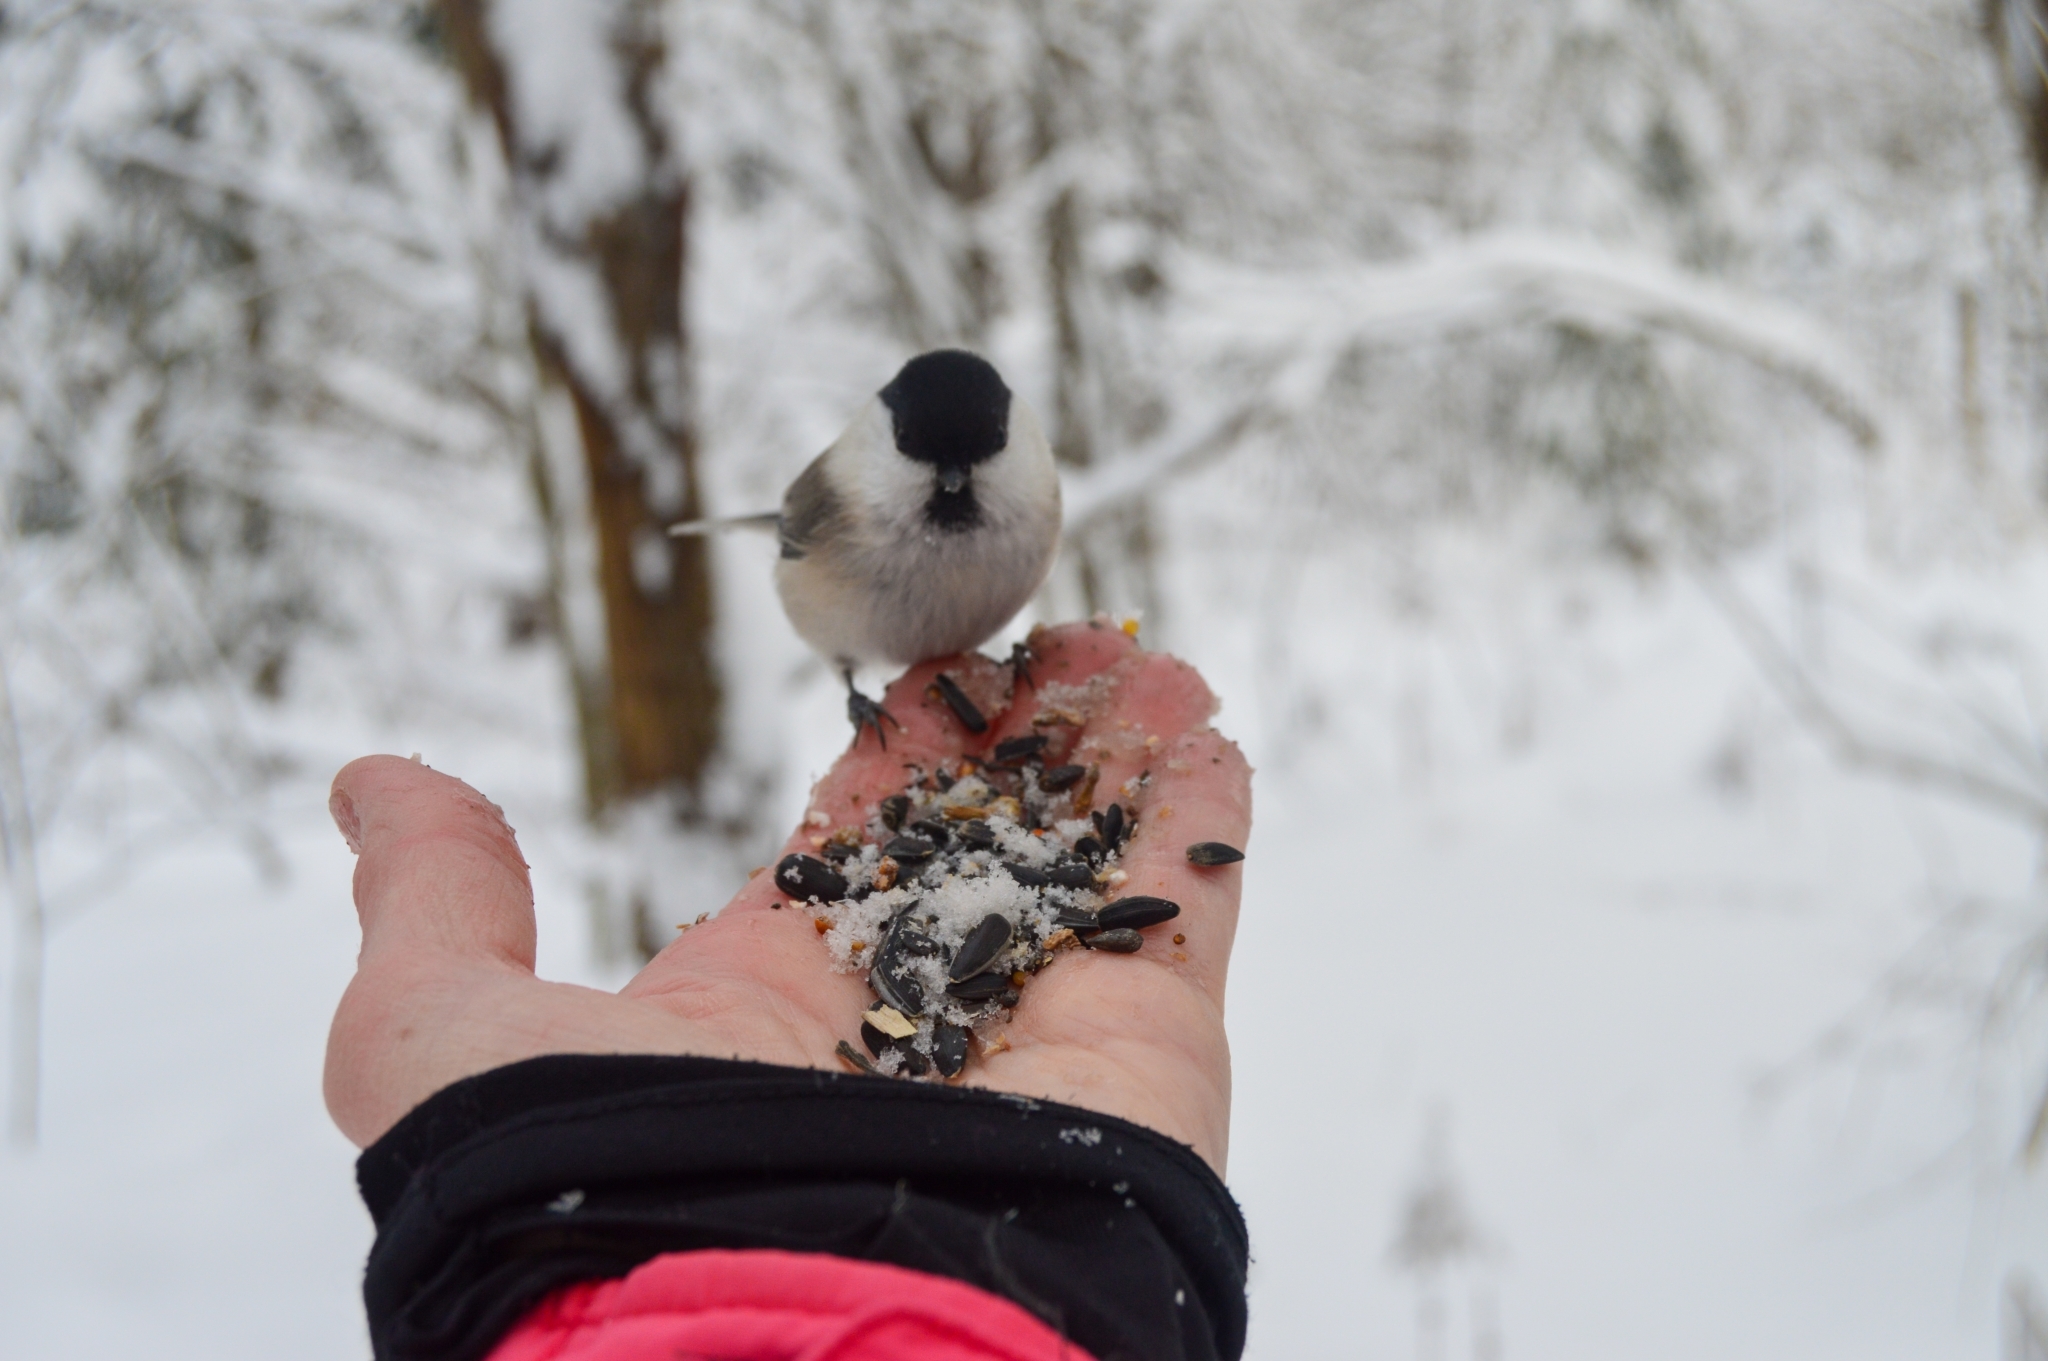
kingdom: Animalia
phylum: Chordata
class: Aves
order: Passeriformes
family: Paridae
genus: Poecile
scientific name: Poecile montanus
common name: Willow tit
